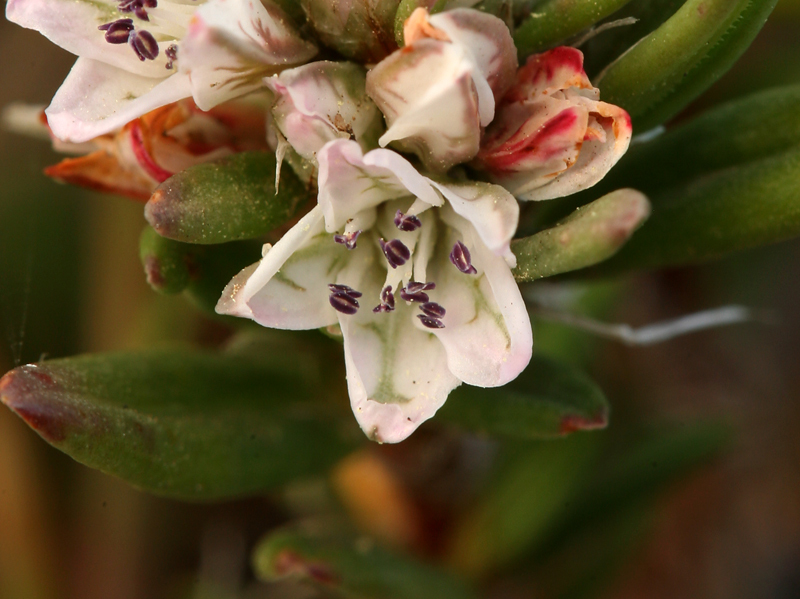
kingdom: Plantae
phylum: Tracheophyta
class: Magnoliopsida
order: Caryophyllales
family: Polygonaceae
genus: Polygonum
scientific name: Polygonum paronychia
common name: Dune knotweed
